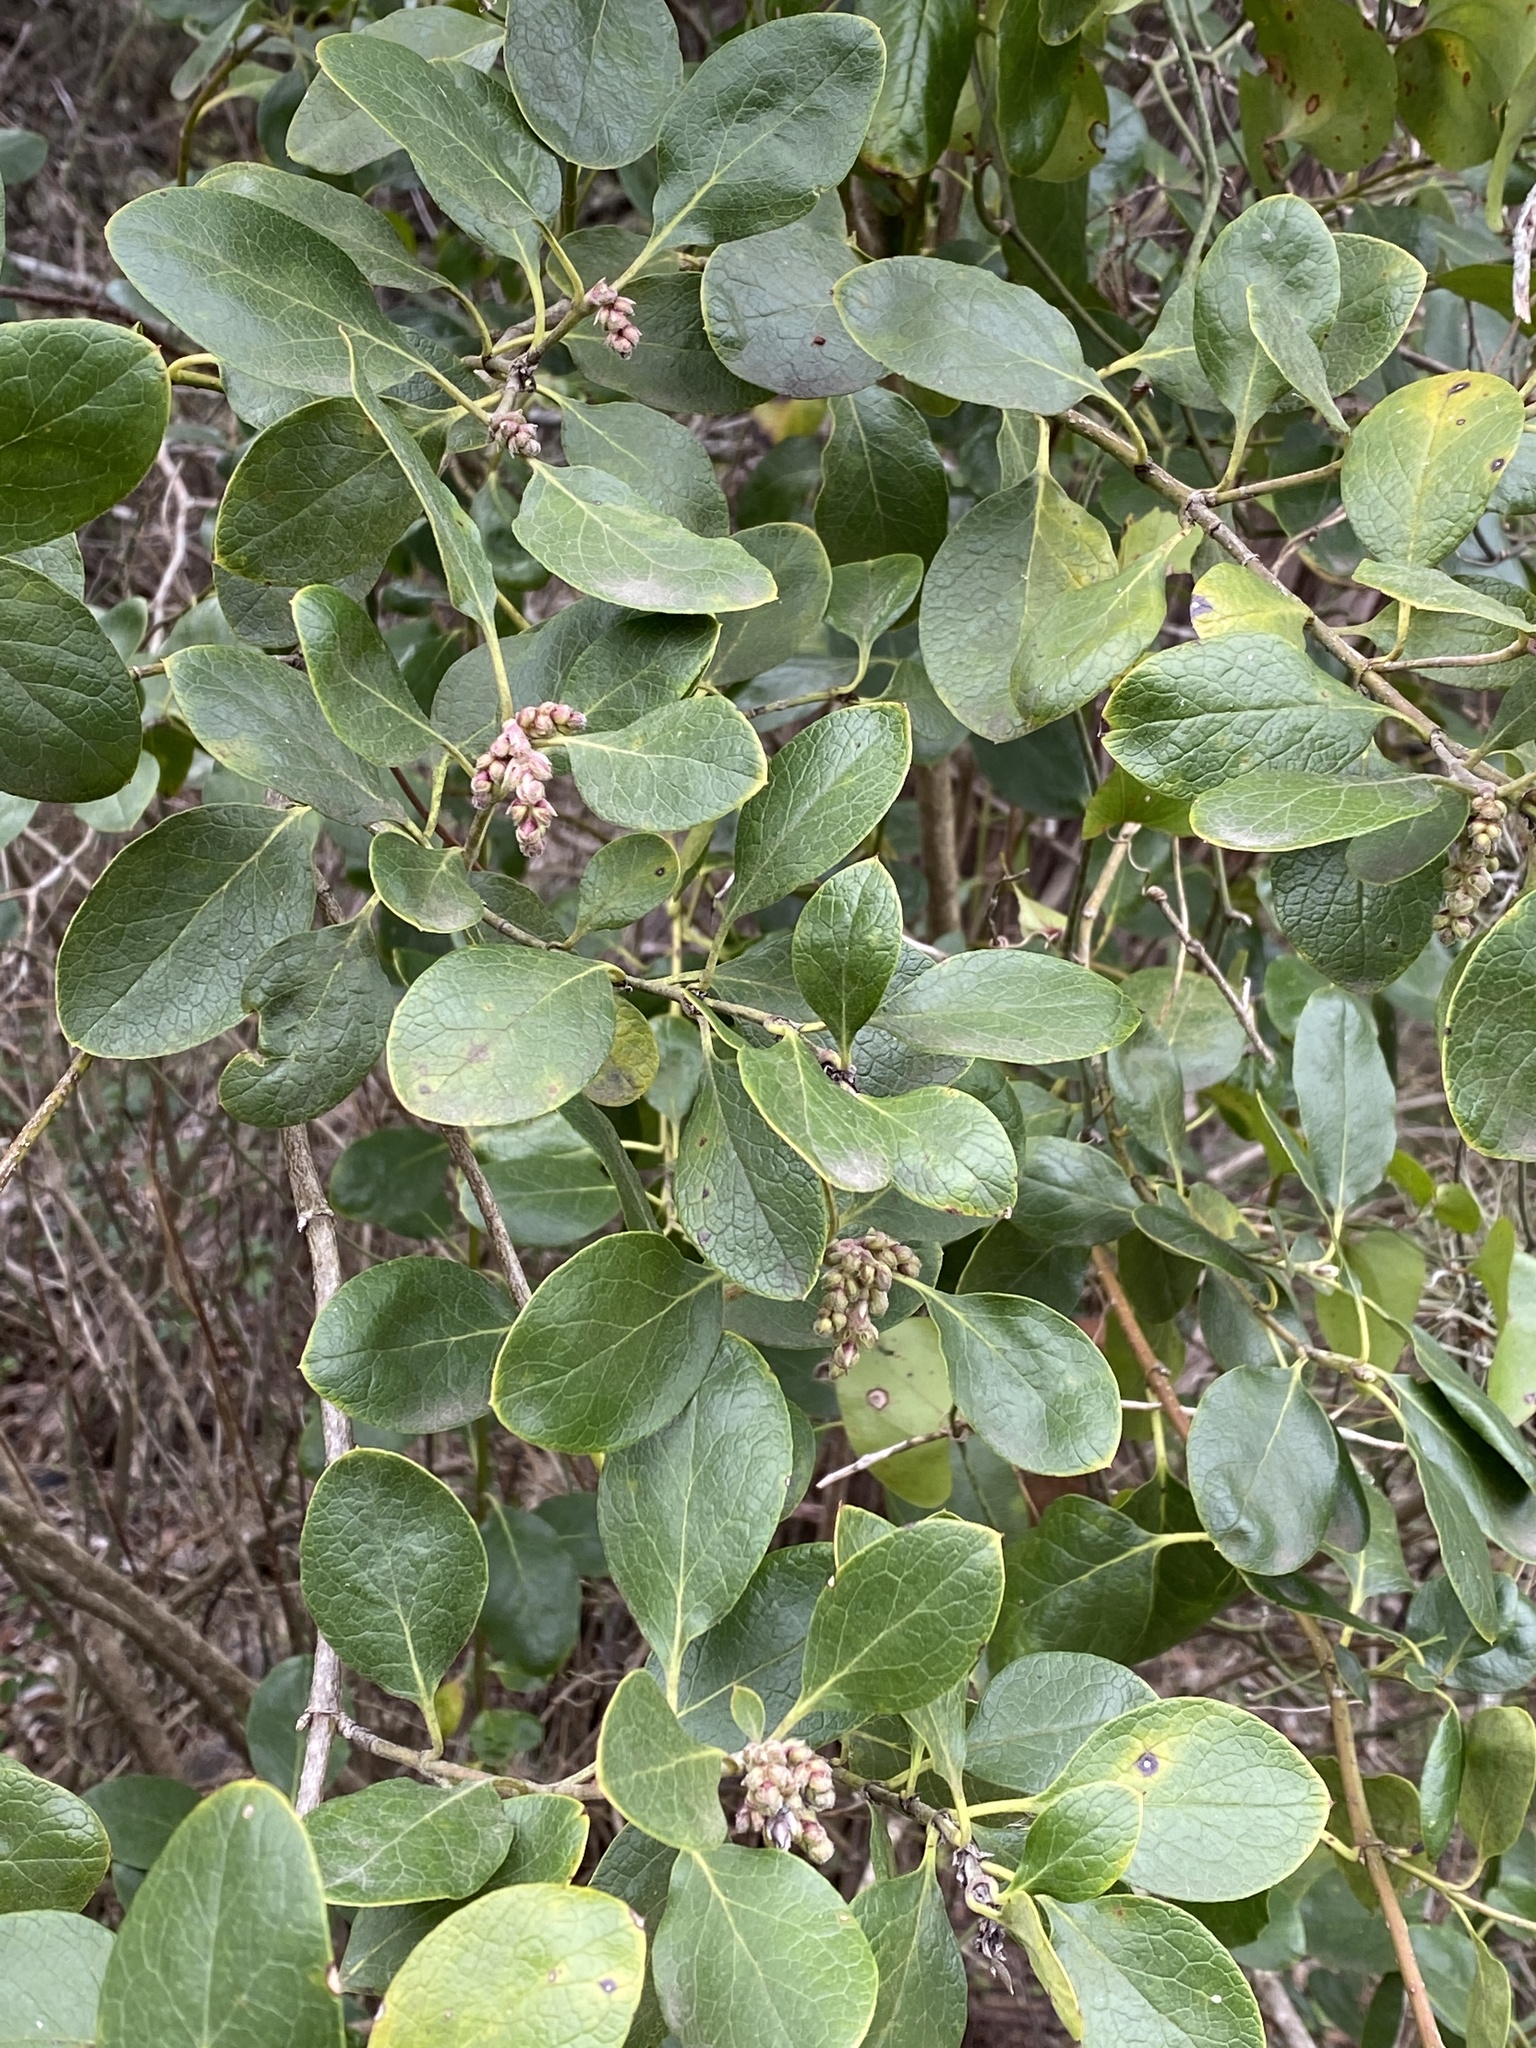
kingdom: Plantae
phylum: Tracheophyta
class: Magnoliopsida
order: Garryales
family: Garryaceae
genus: Garrya
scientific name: Garrya lindheimeri
